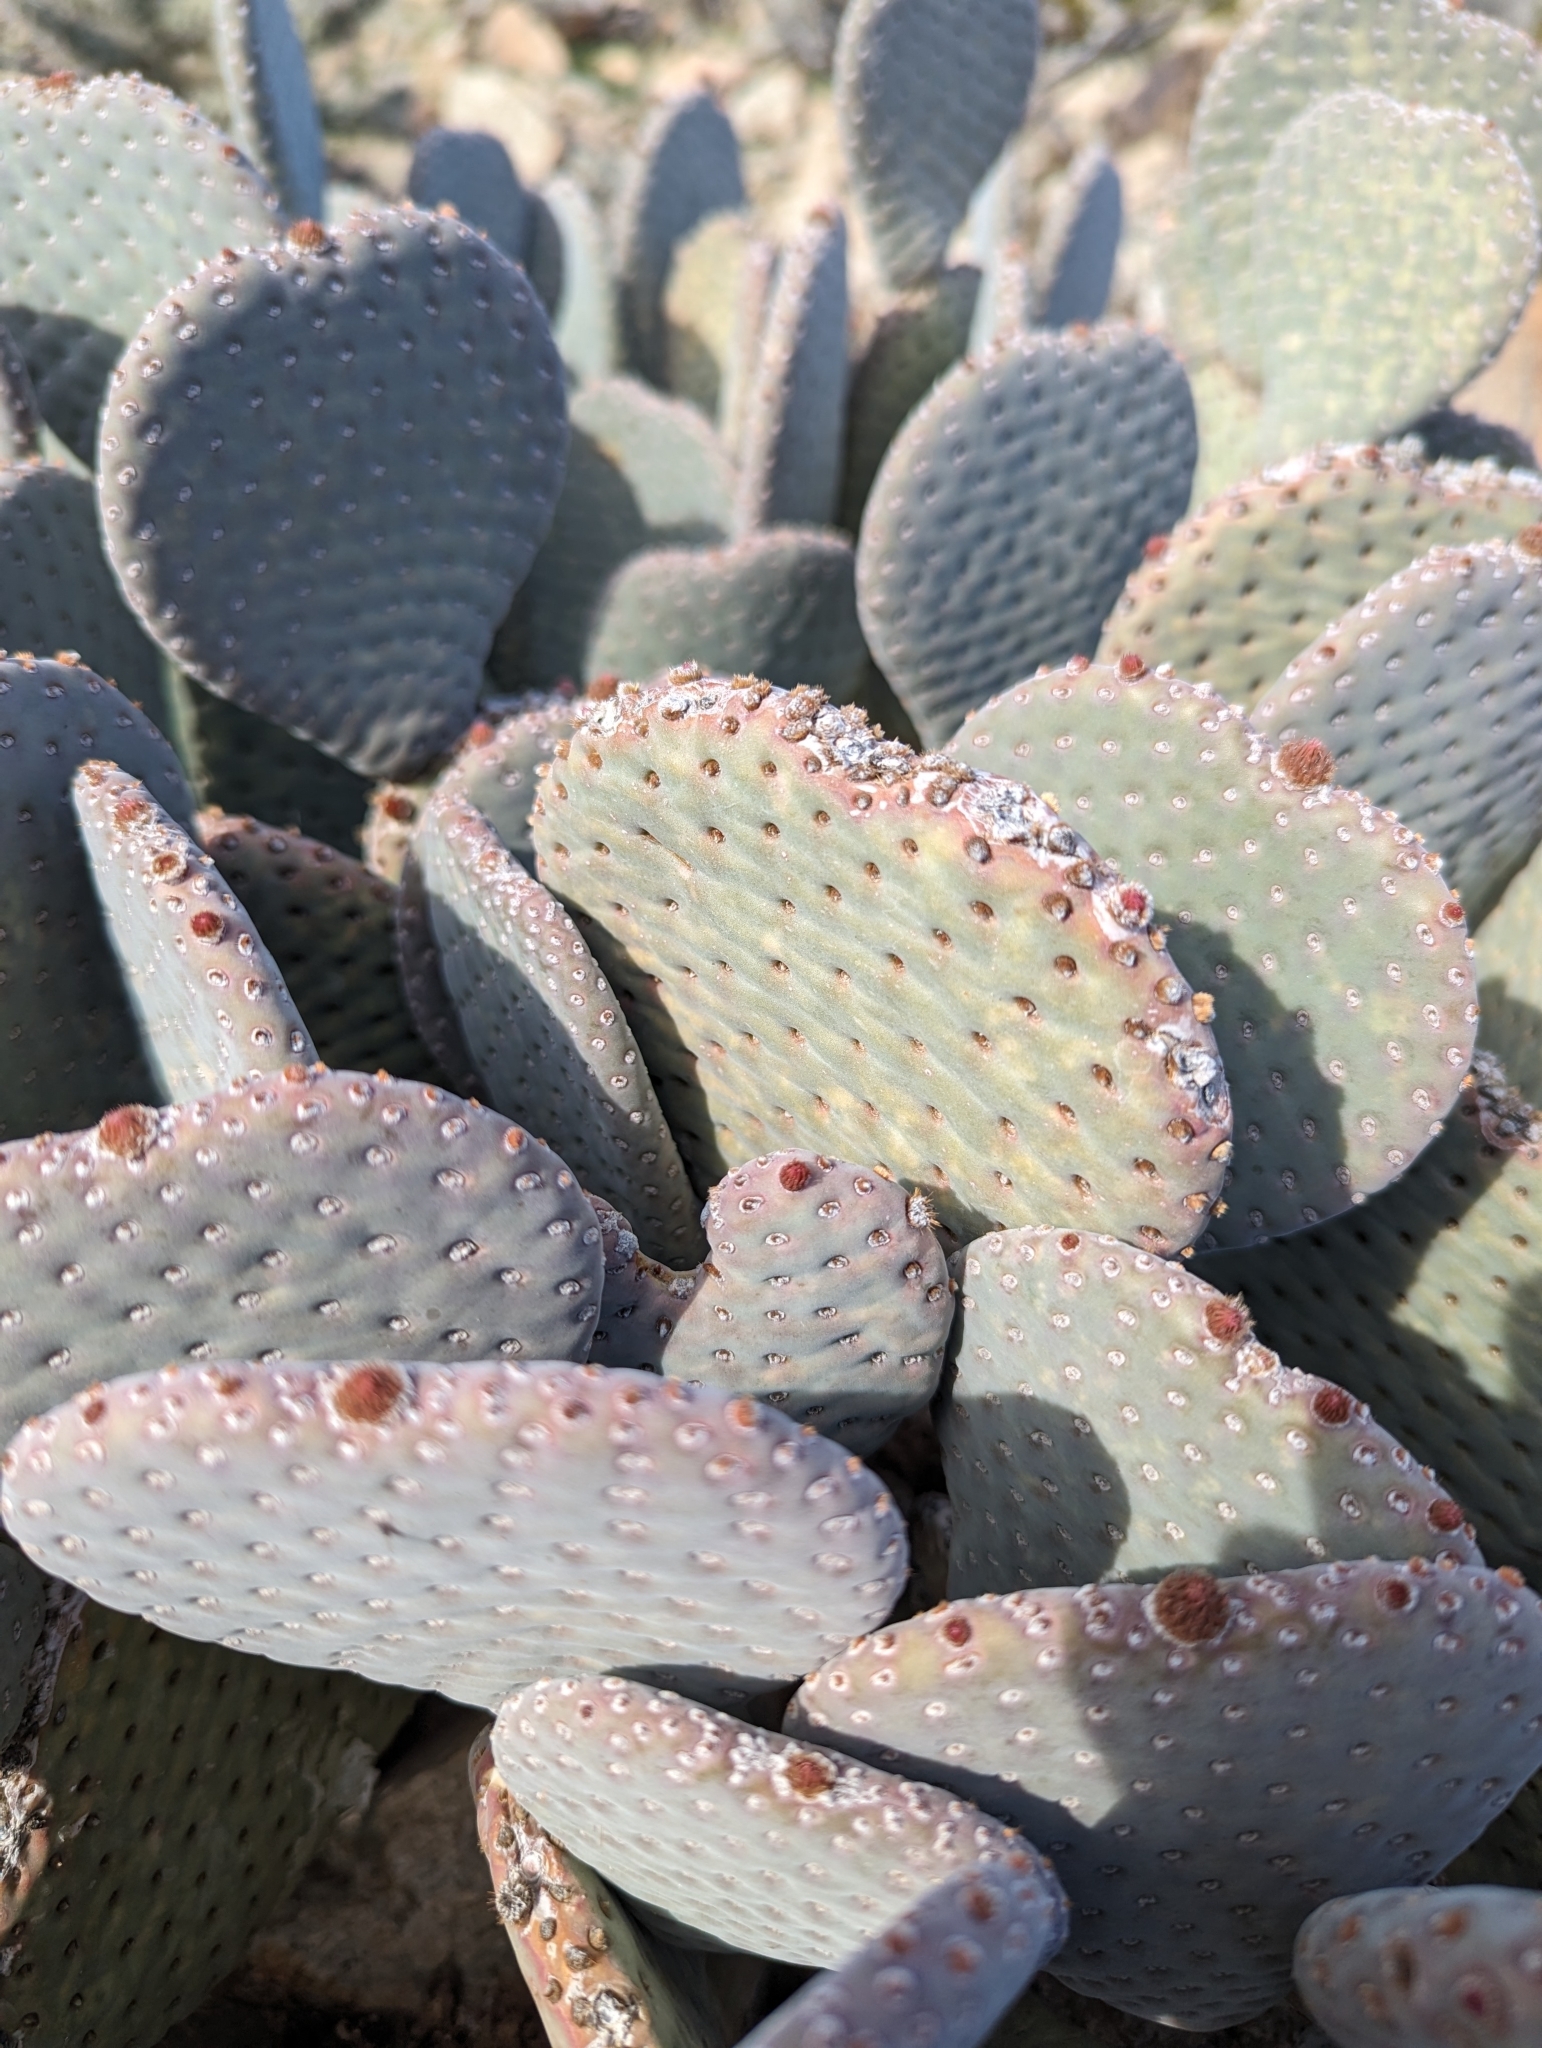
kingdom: Plantae
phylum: Tracheophyta
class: Magnoliopsida
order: Caryophyllales
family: Cactaceae
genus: Opuntia
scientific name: Opuntia basilaris
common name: Beavertail prickly-pear
